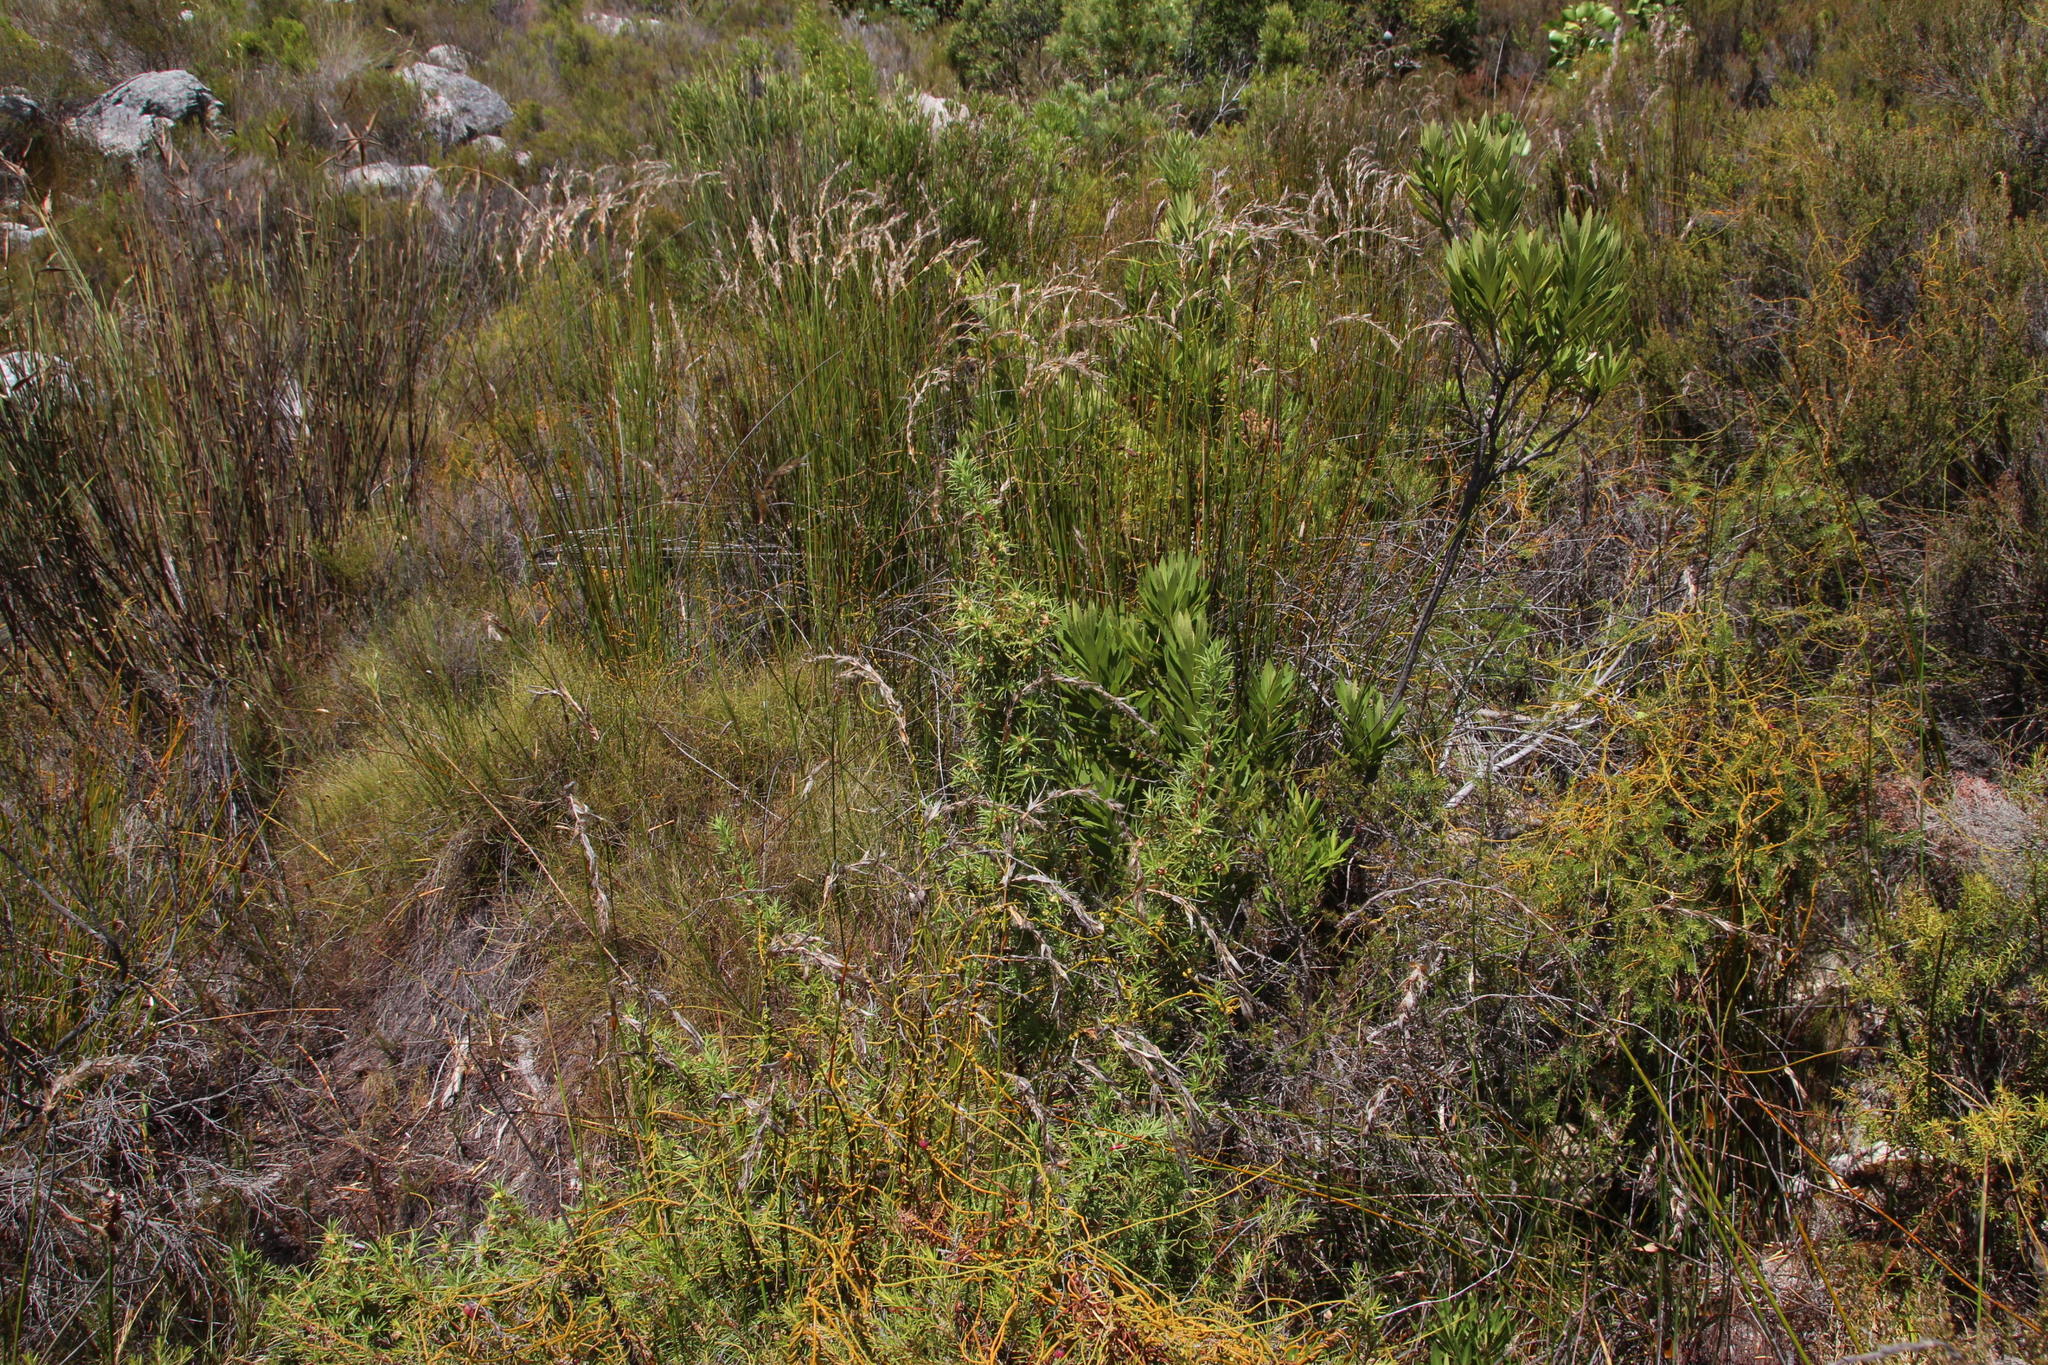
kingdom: Plantae
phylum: Tracheophyta
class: Magnoliopsida
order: Rosales
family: Rosaceae
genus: Cliffortia
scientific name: Cliffortia dregeana
